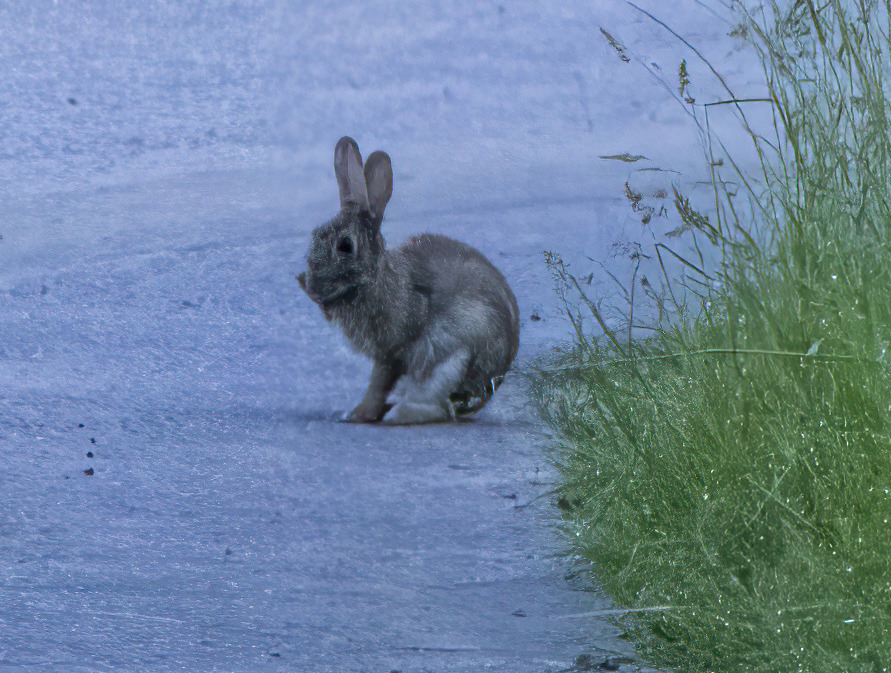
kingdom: Animalia
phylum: Chordata
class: Mammalia
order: Lagomorpha
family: Leporidae
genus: Oryctolagus
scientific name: Oryctolagus cuniculus
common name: European rabbit
